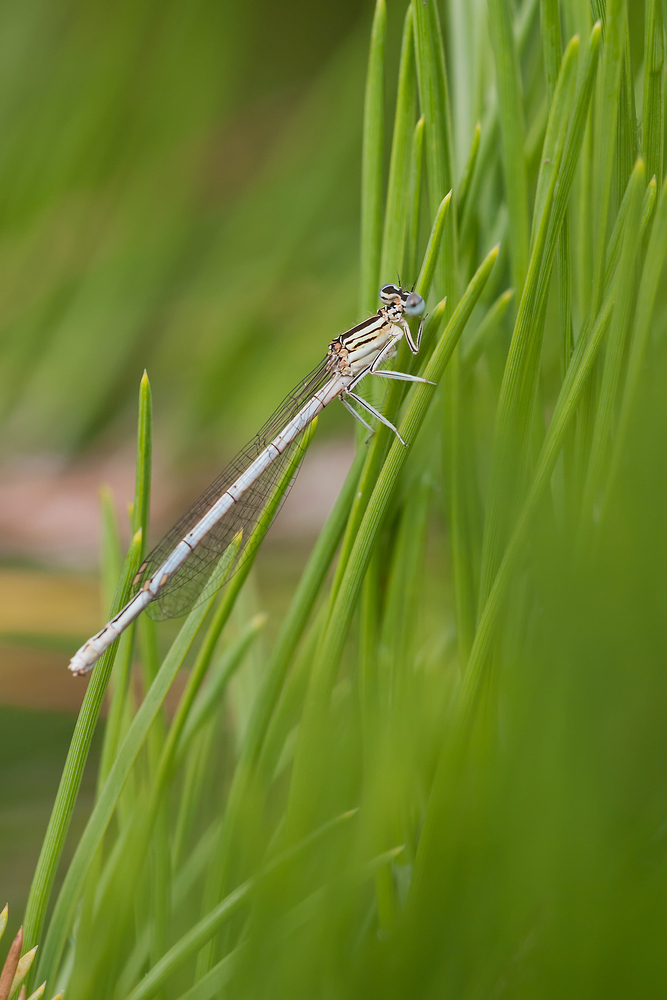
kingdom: Animalia
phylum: Arthropoda
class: Insecta
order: Odonata
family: Platycnemididae
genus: Platycnemis
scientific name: Platycnemis pennipes
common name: White-legged damselfly
